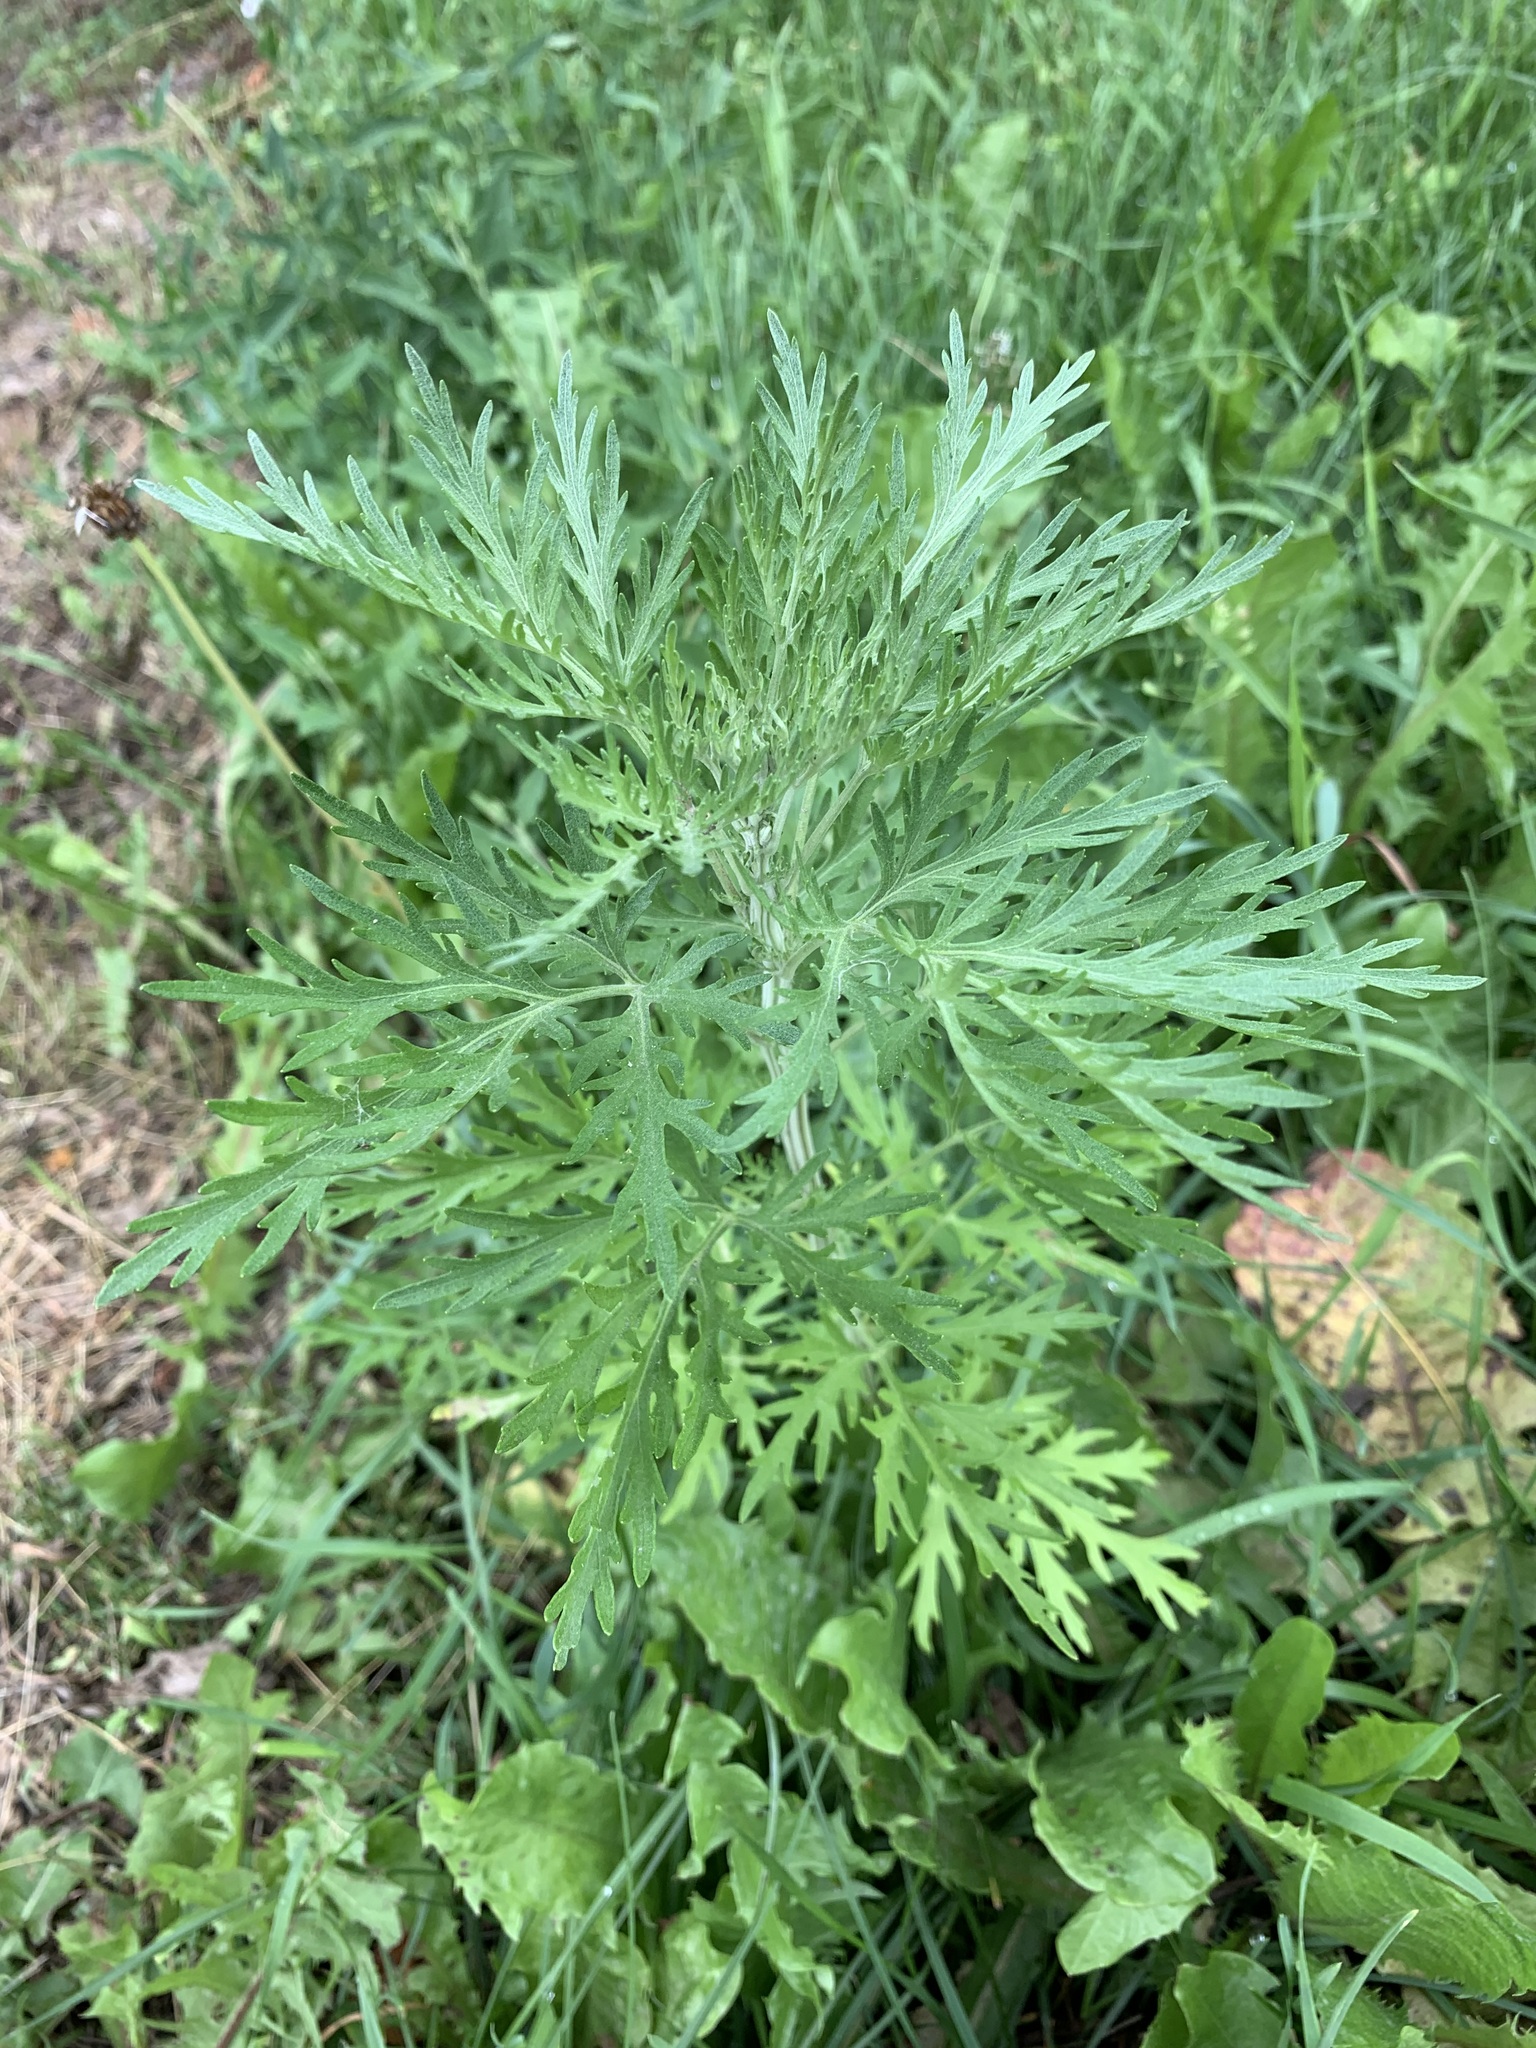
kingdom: Plantae
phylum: Tracheophyta
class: Magnoliopsida
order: Asterales
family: Asteraceae
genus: Artemisia
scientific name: Artemisia sieversiana
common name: Sieversian wormwood
